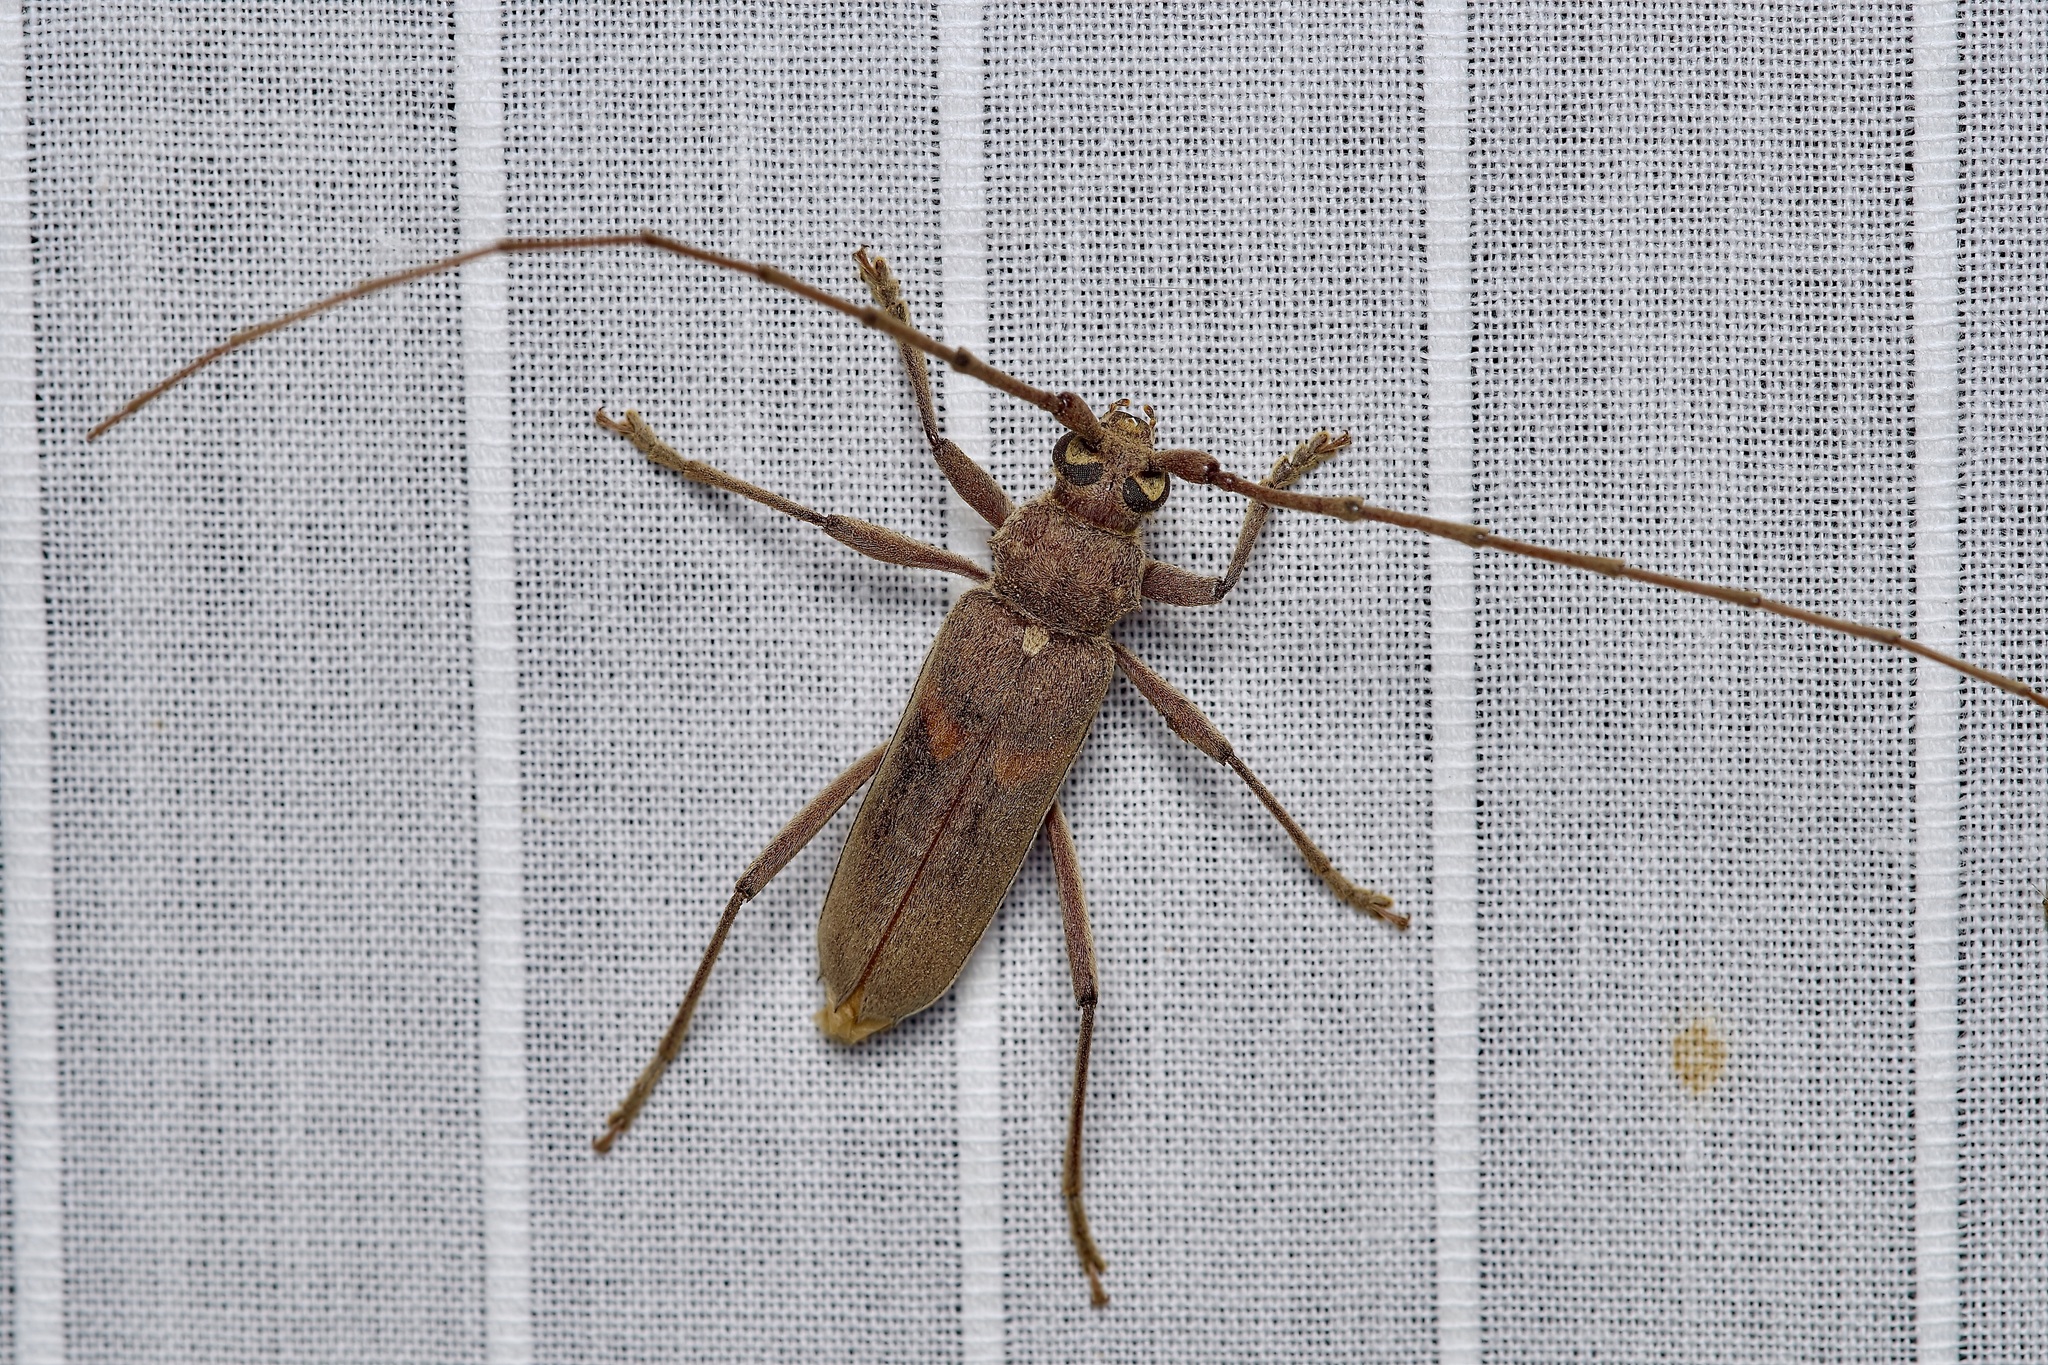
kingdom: Animalia
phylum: Arthropoda
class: Insecta
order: Coleoptera
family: Cerambycidae
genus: Knulliana
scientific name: Knulliana cincta
